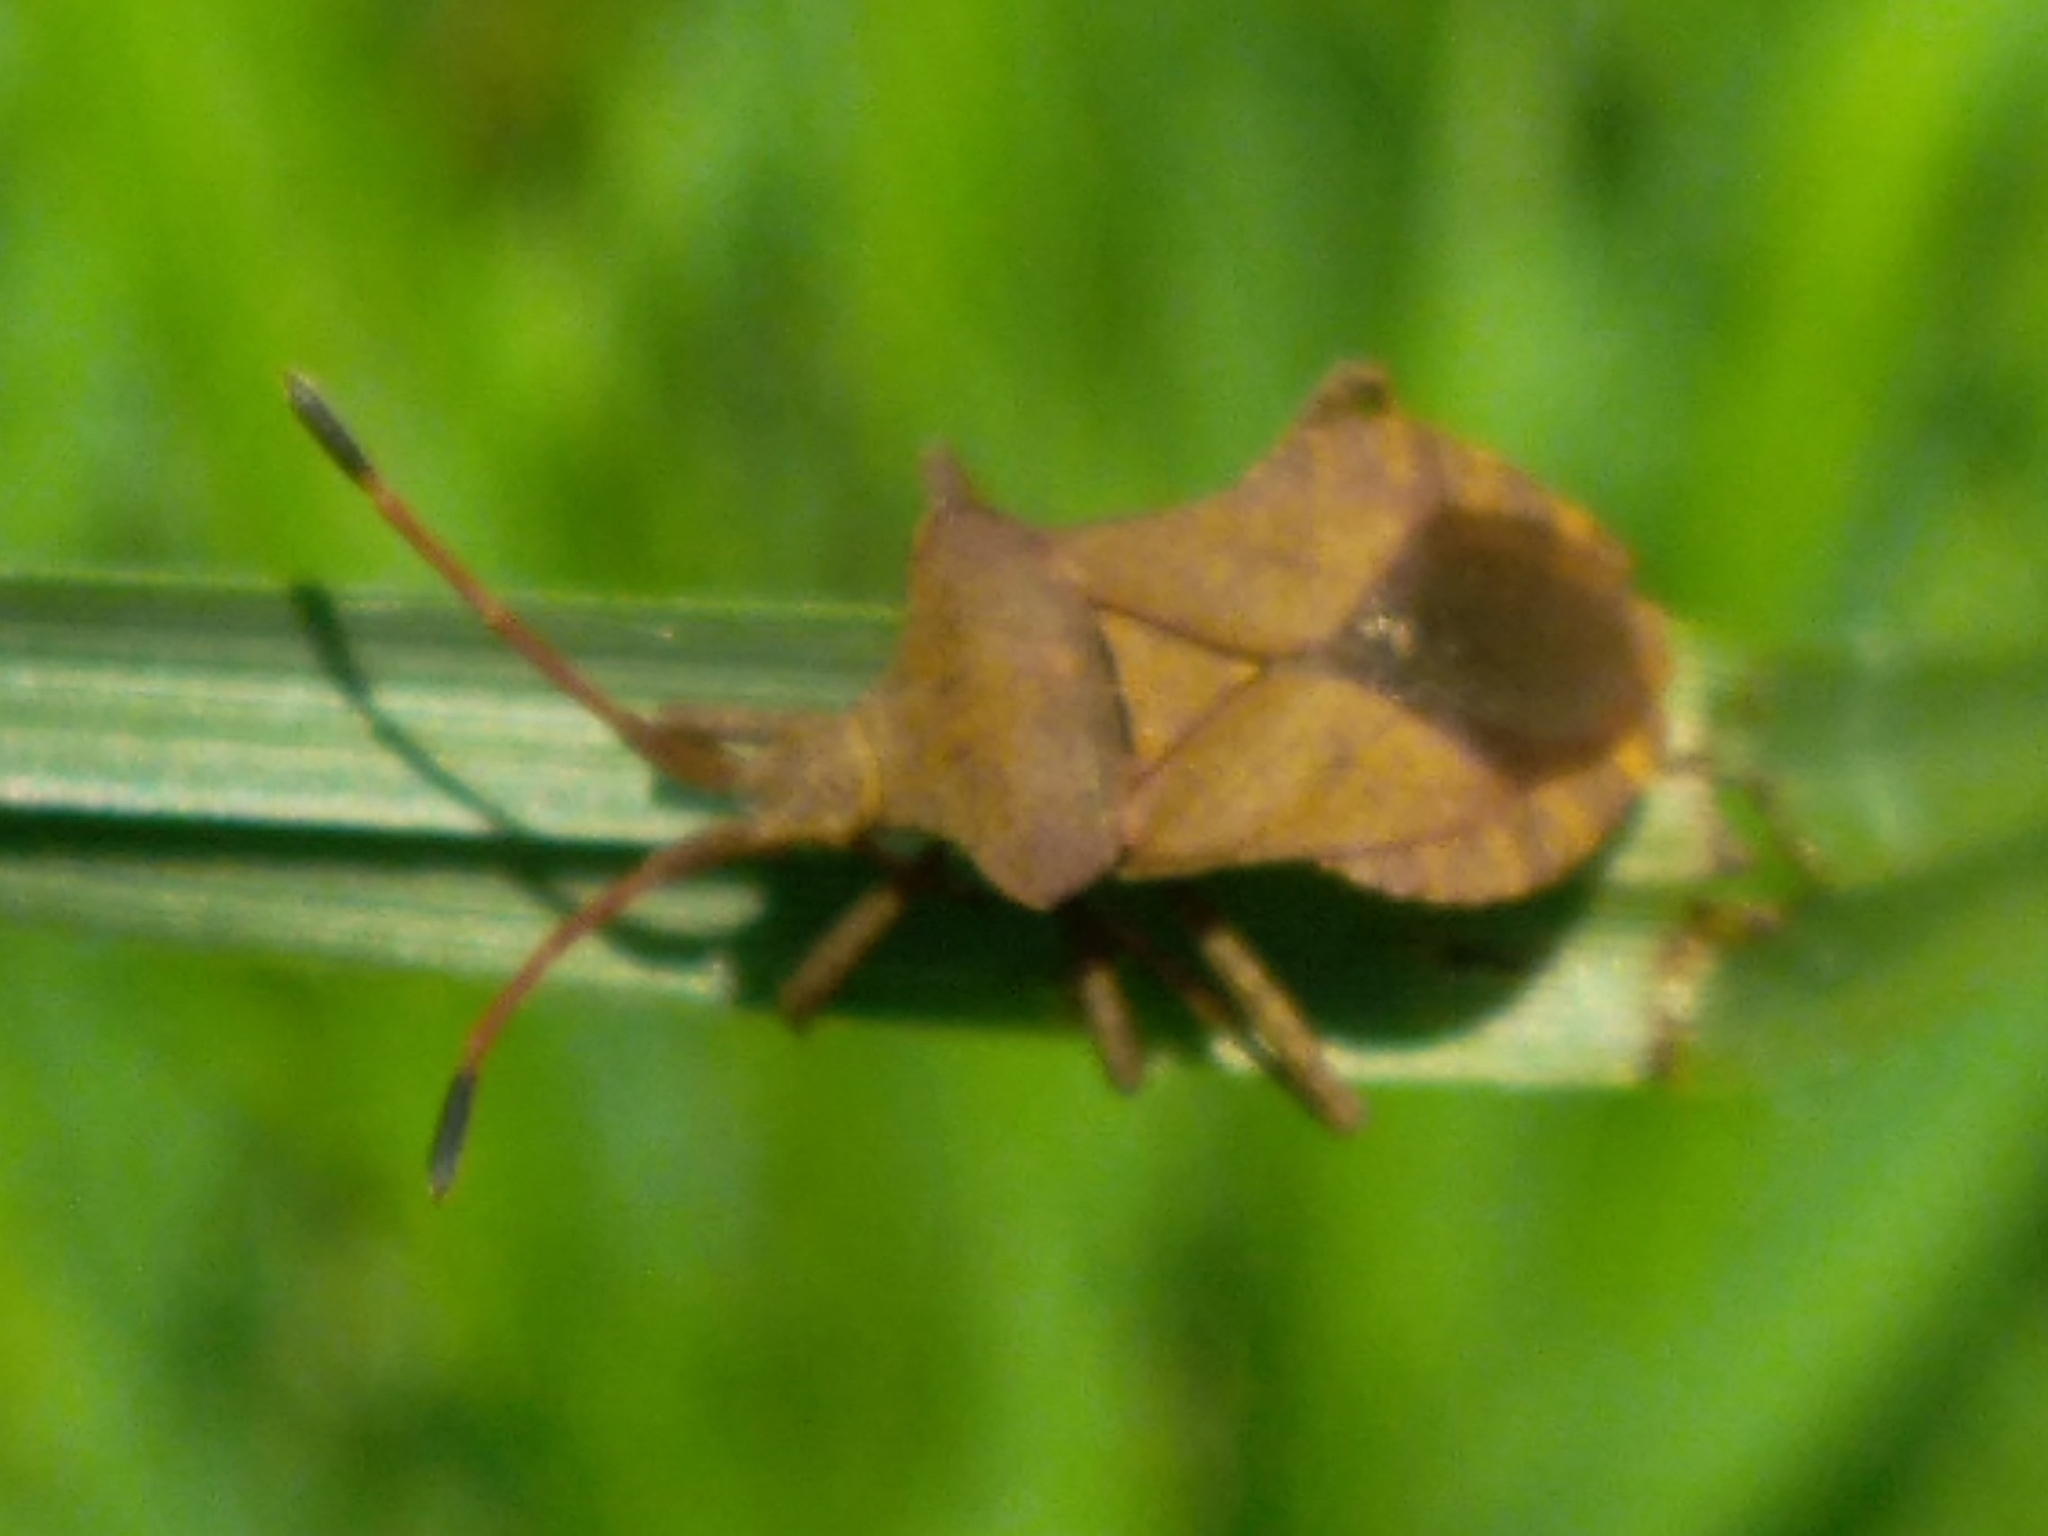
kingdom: Animalia
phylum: Arthropoda
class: Insecta
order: Hemiptera
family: Coreidae
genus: Coreus
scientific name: Coreus marginatus
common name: Dock bug
